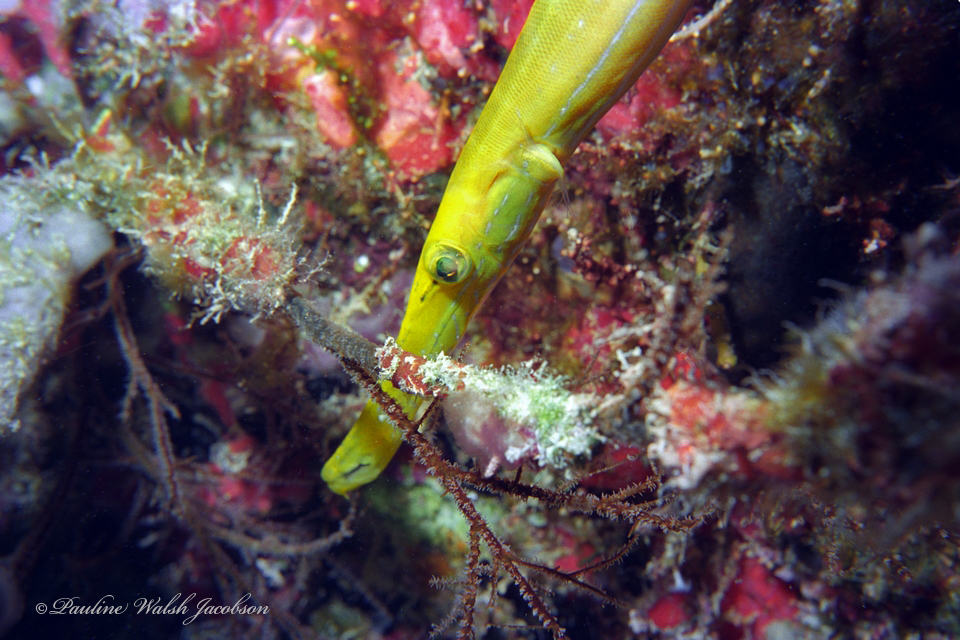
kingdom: Animalia
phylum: Chordata
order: Syngnathiformes
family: Aulostomidae
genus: Aulostomus
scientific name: Aulostomus maculatus
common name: West atlantic trumpetfish
